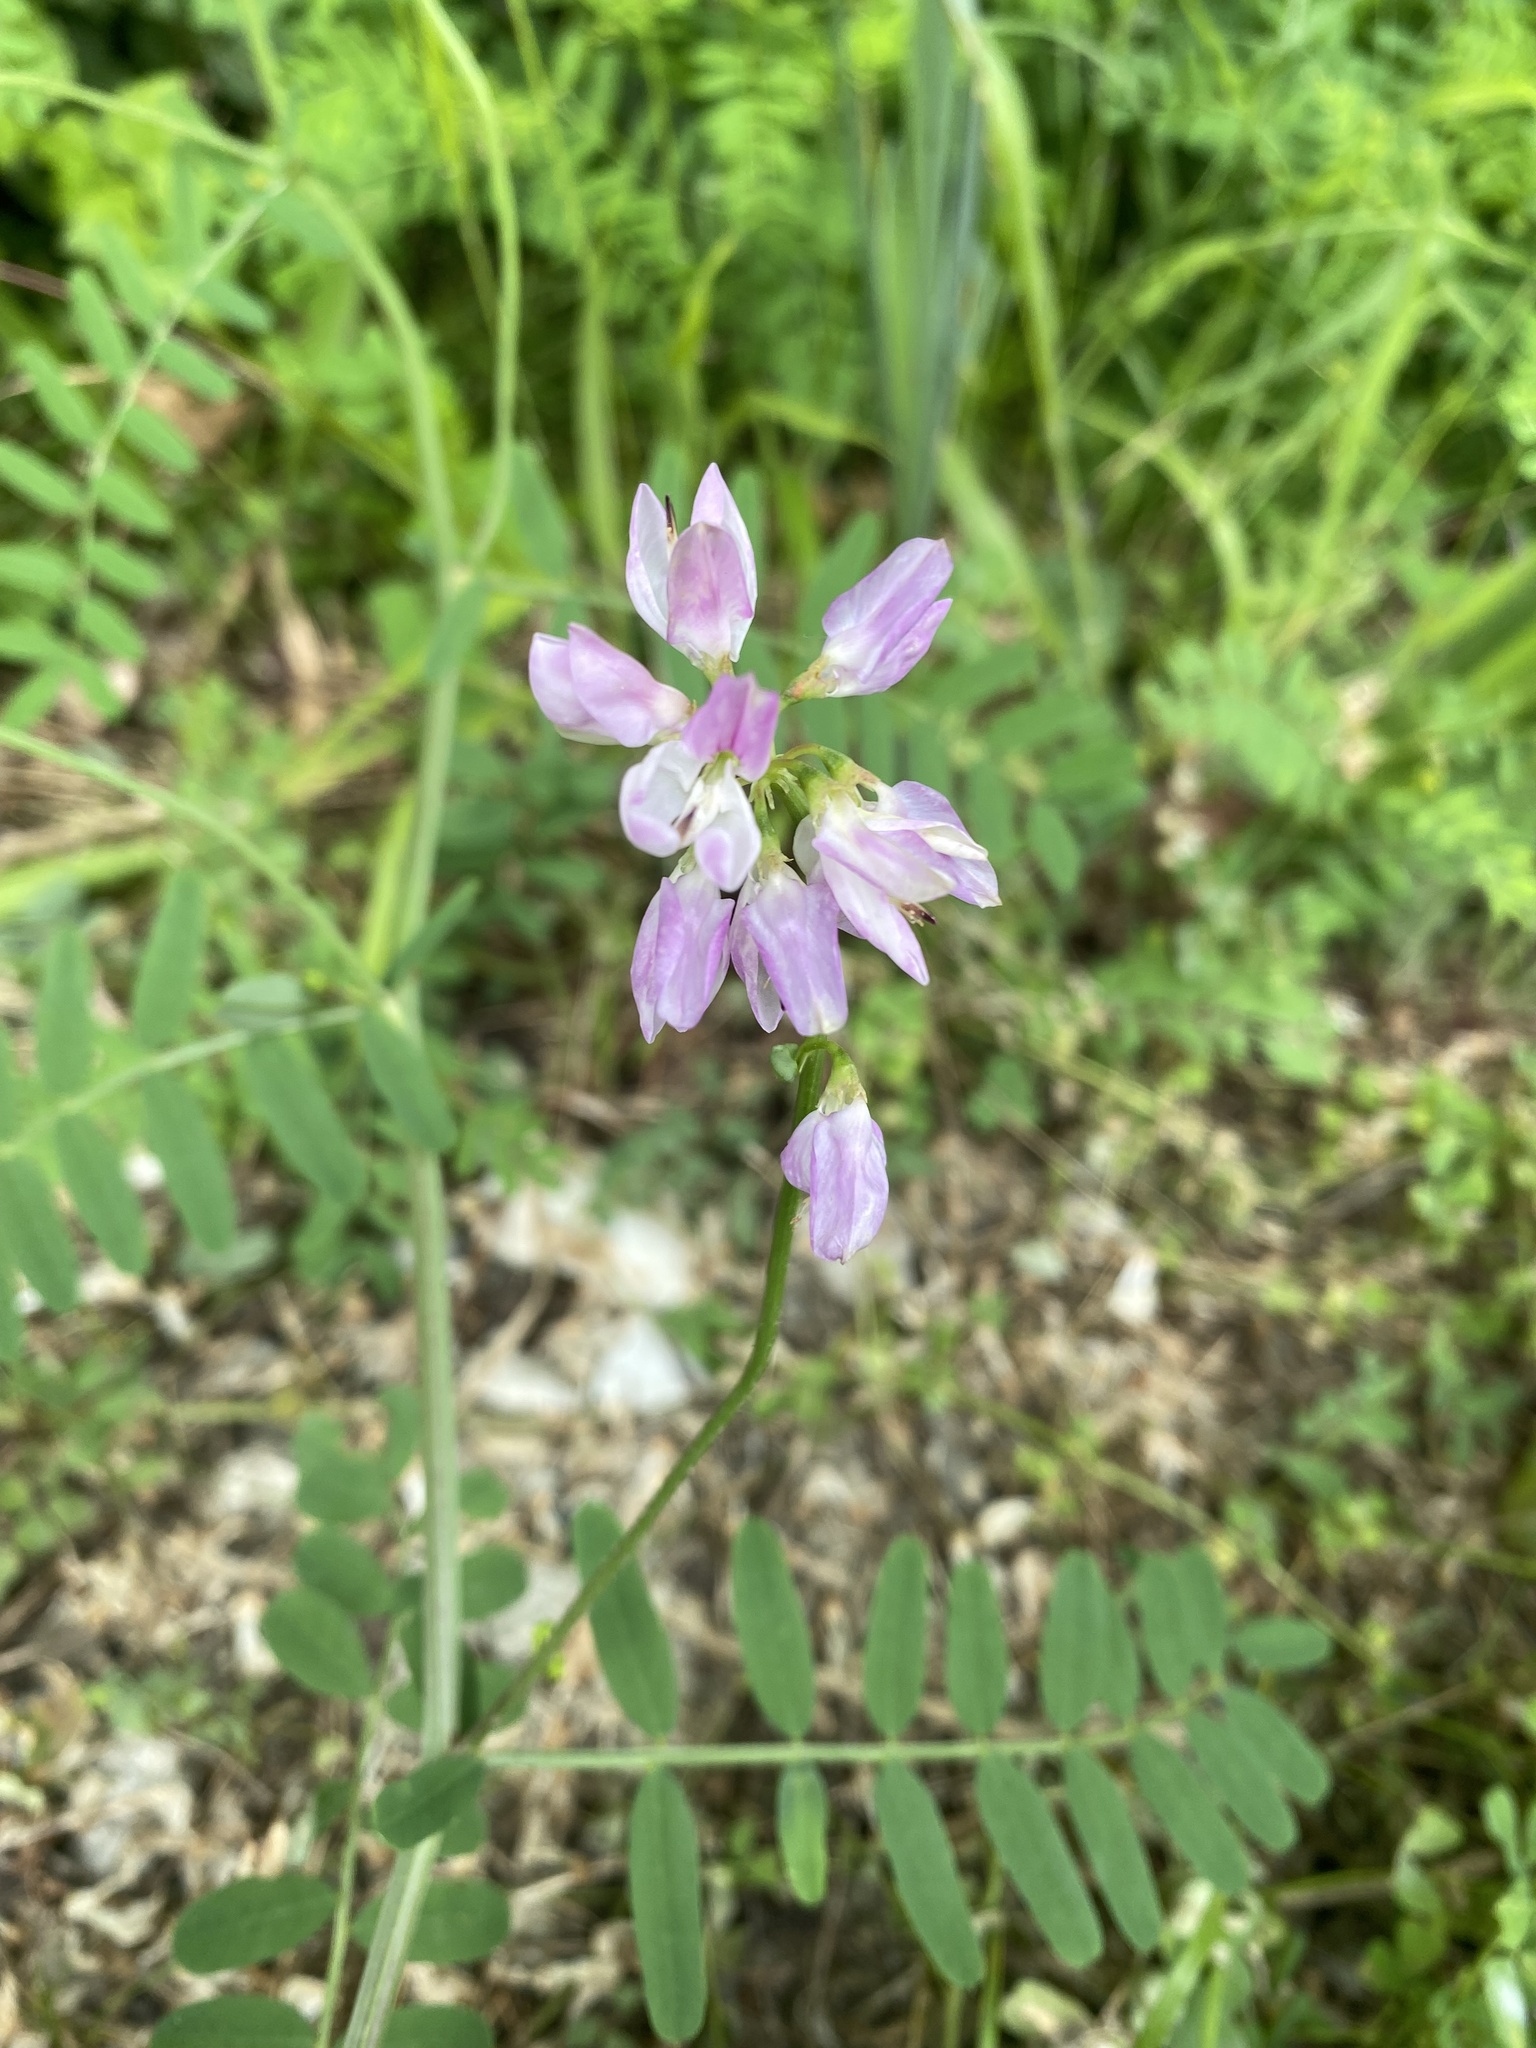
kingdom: Plantae
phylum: Tracheophyta
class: Magnoliopsida
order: Fabales
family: Fabaceae
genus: Coronilla
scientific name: Coronilla varia
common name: Crownvetch
